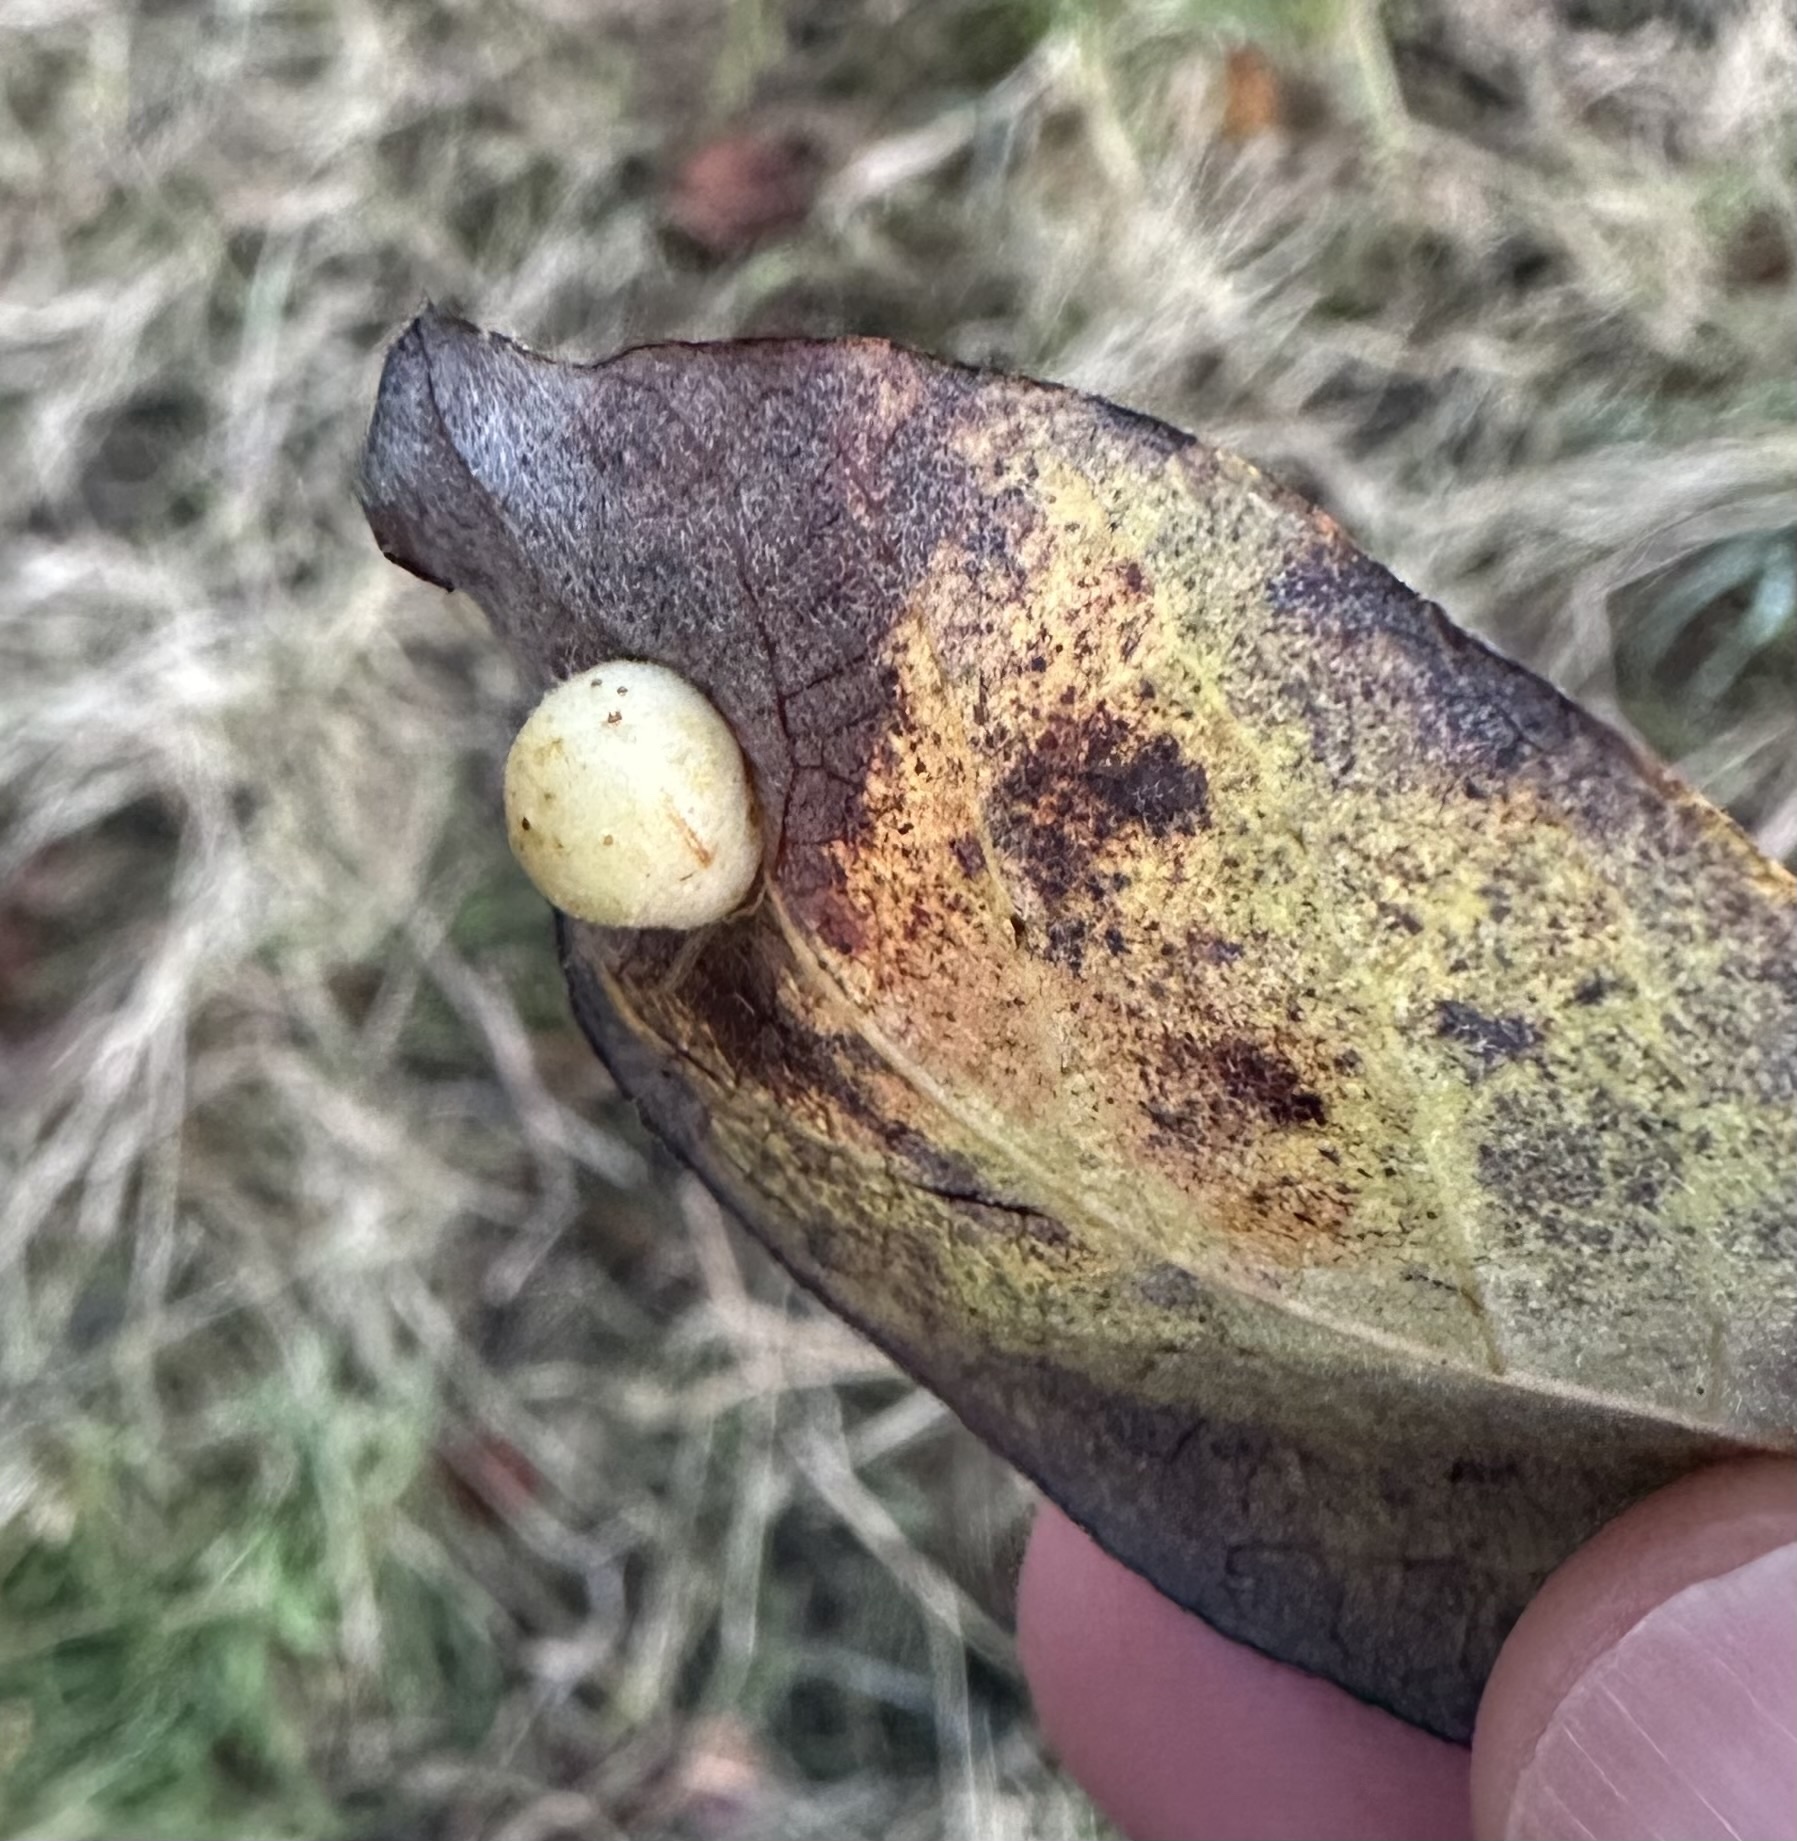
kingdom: Animalia
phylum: Arthropoda
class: Insecta
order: Hymenoptera
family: Tenthredinidae
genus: Pontania
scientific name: Pontania pedunculi
